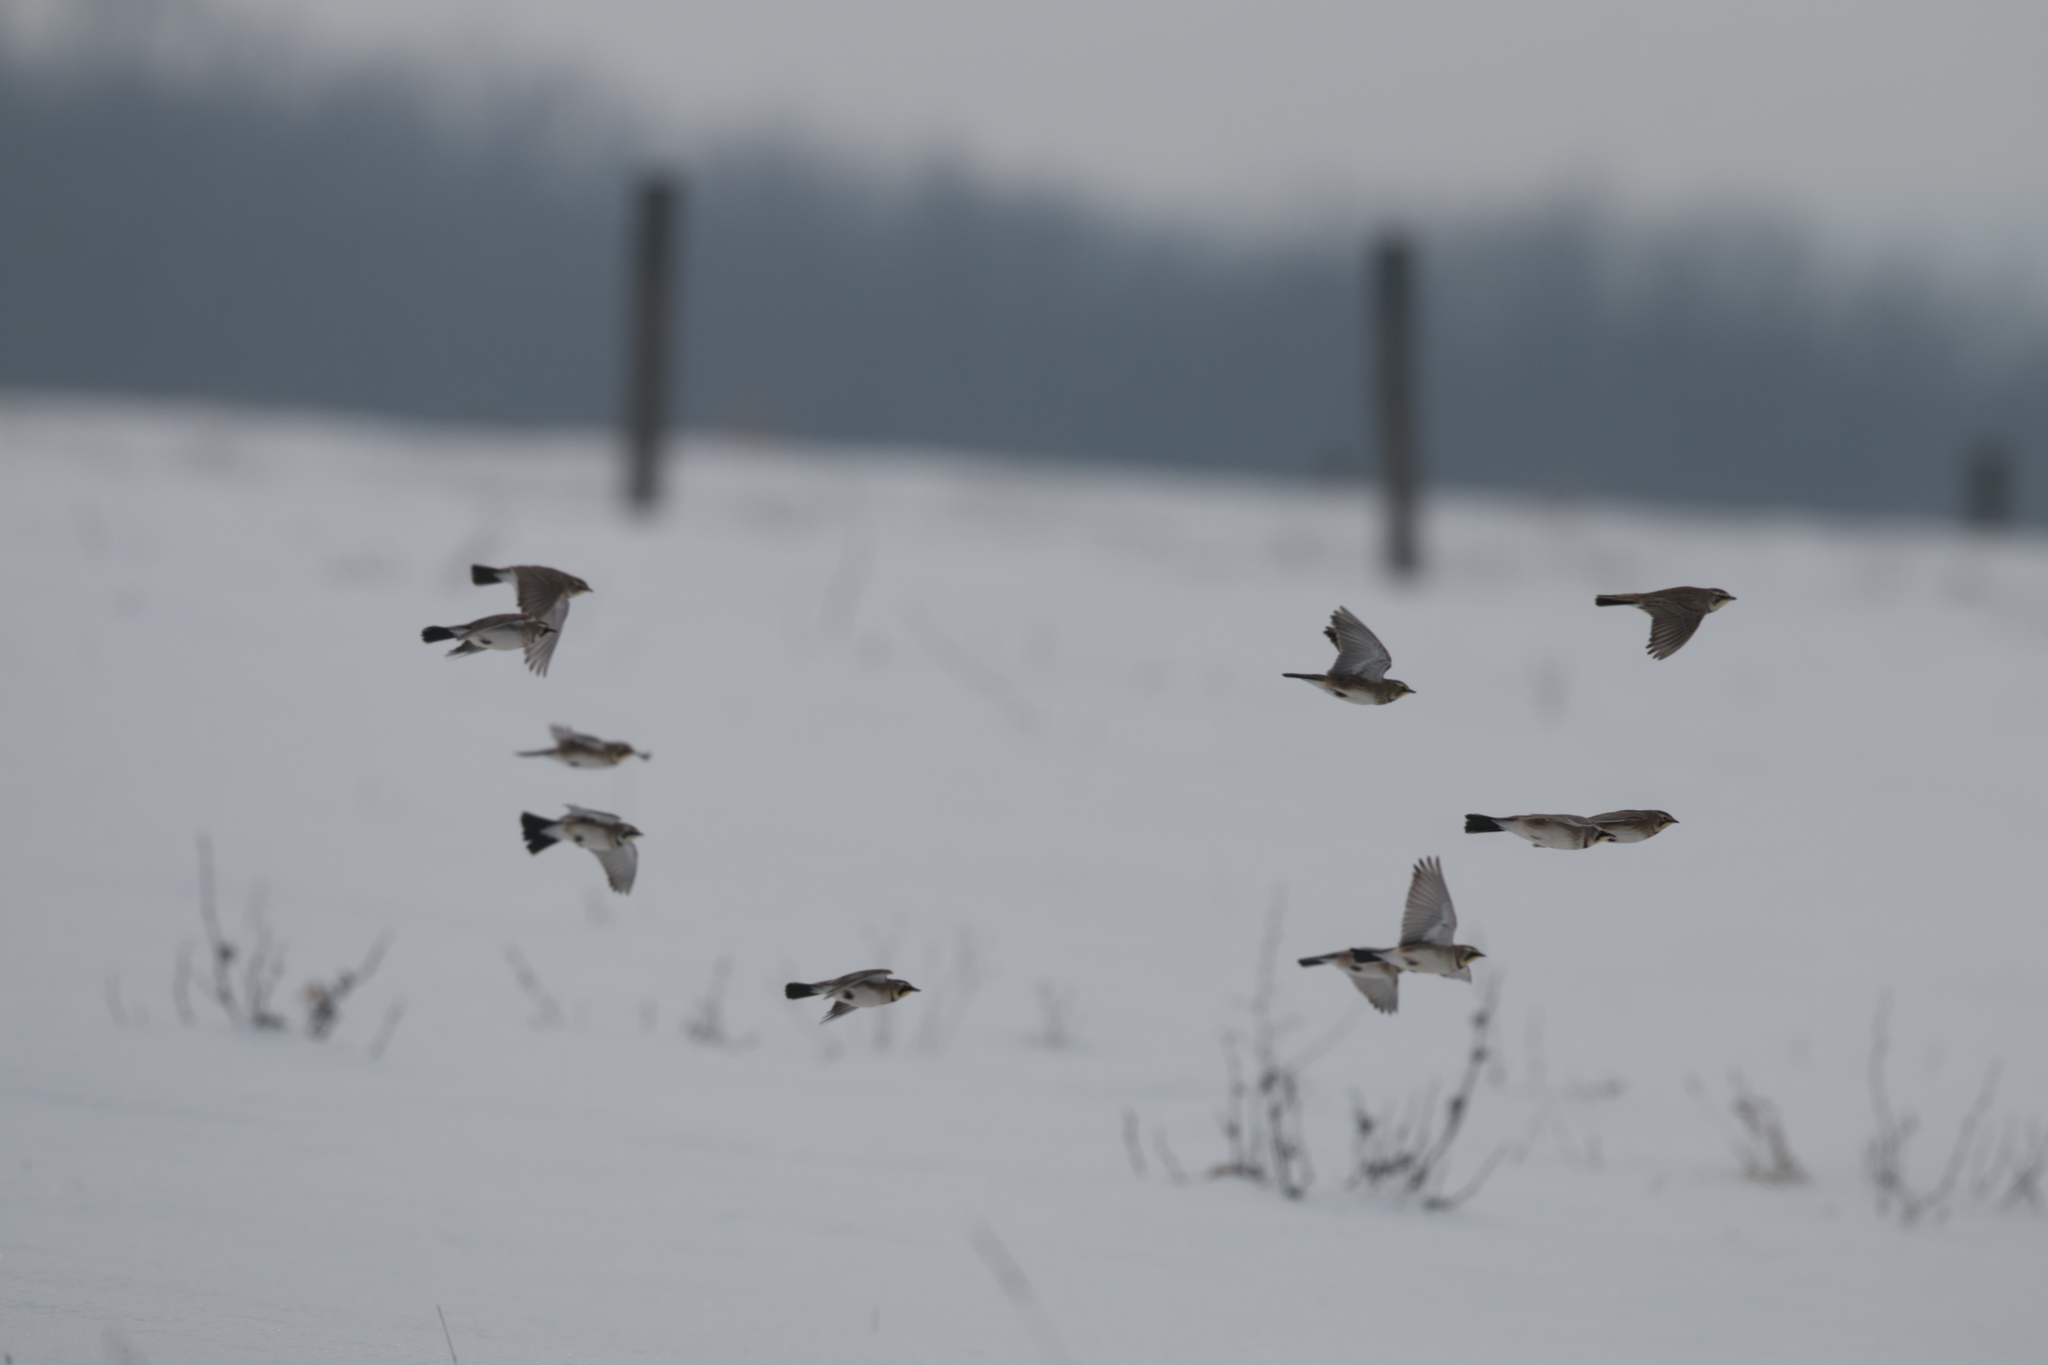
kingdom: Animalia
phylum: Chordata
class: Aves
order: Passeriformes
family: Alaudidae
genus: Eremophila
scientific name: Eremophila alpestris
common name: Horned lark
